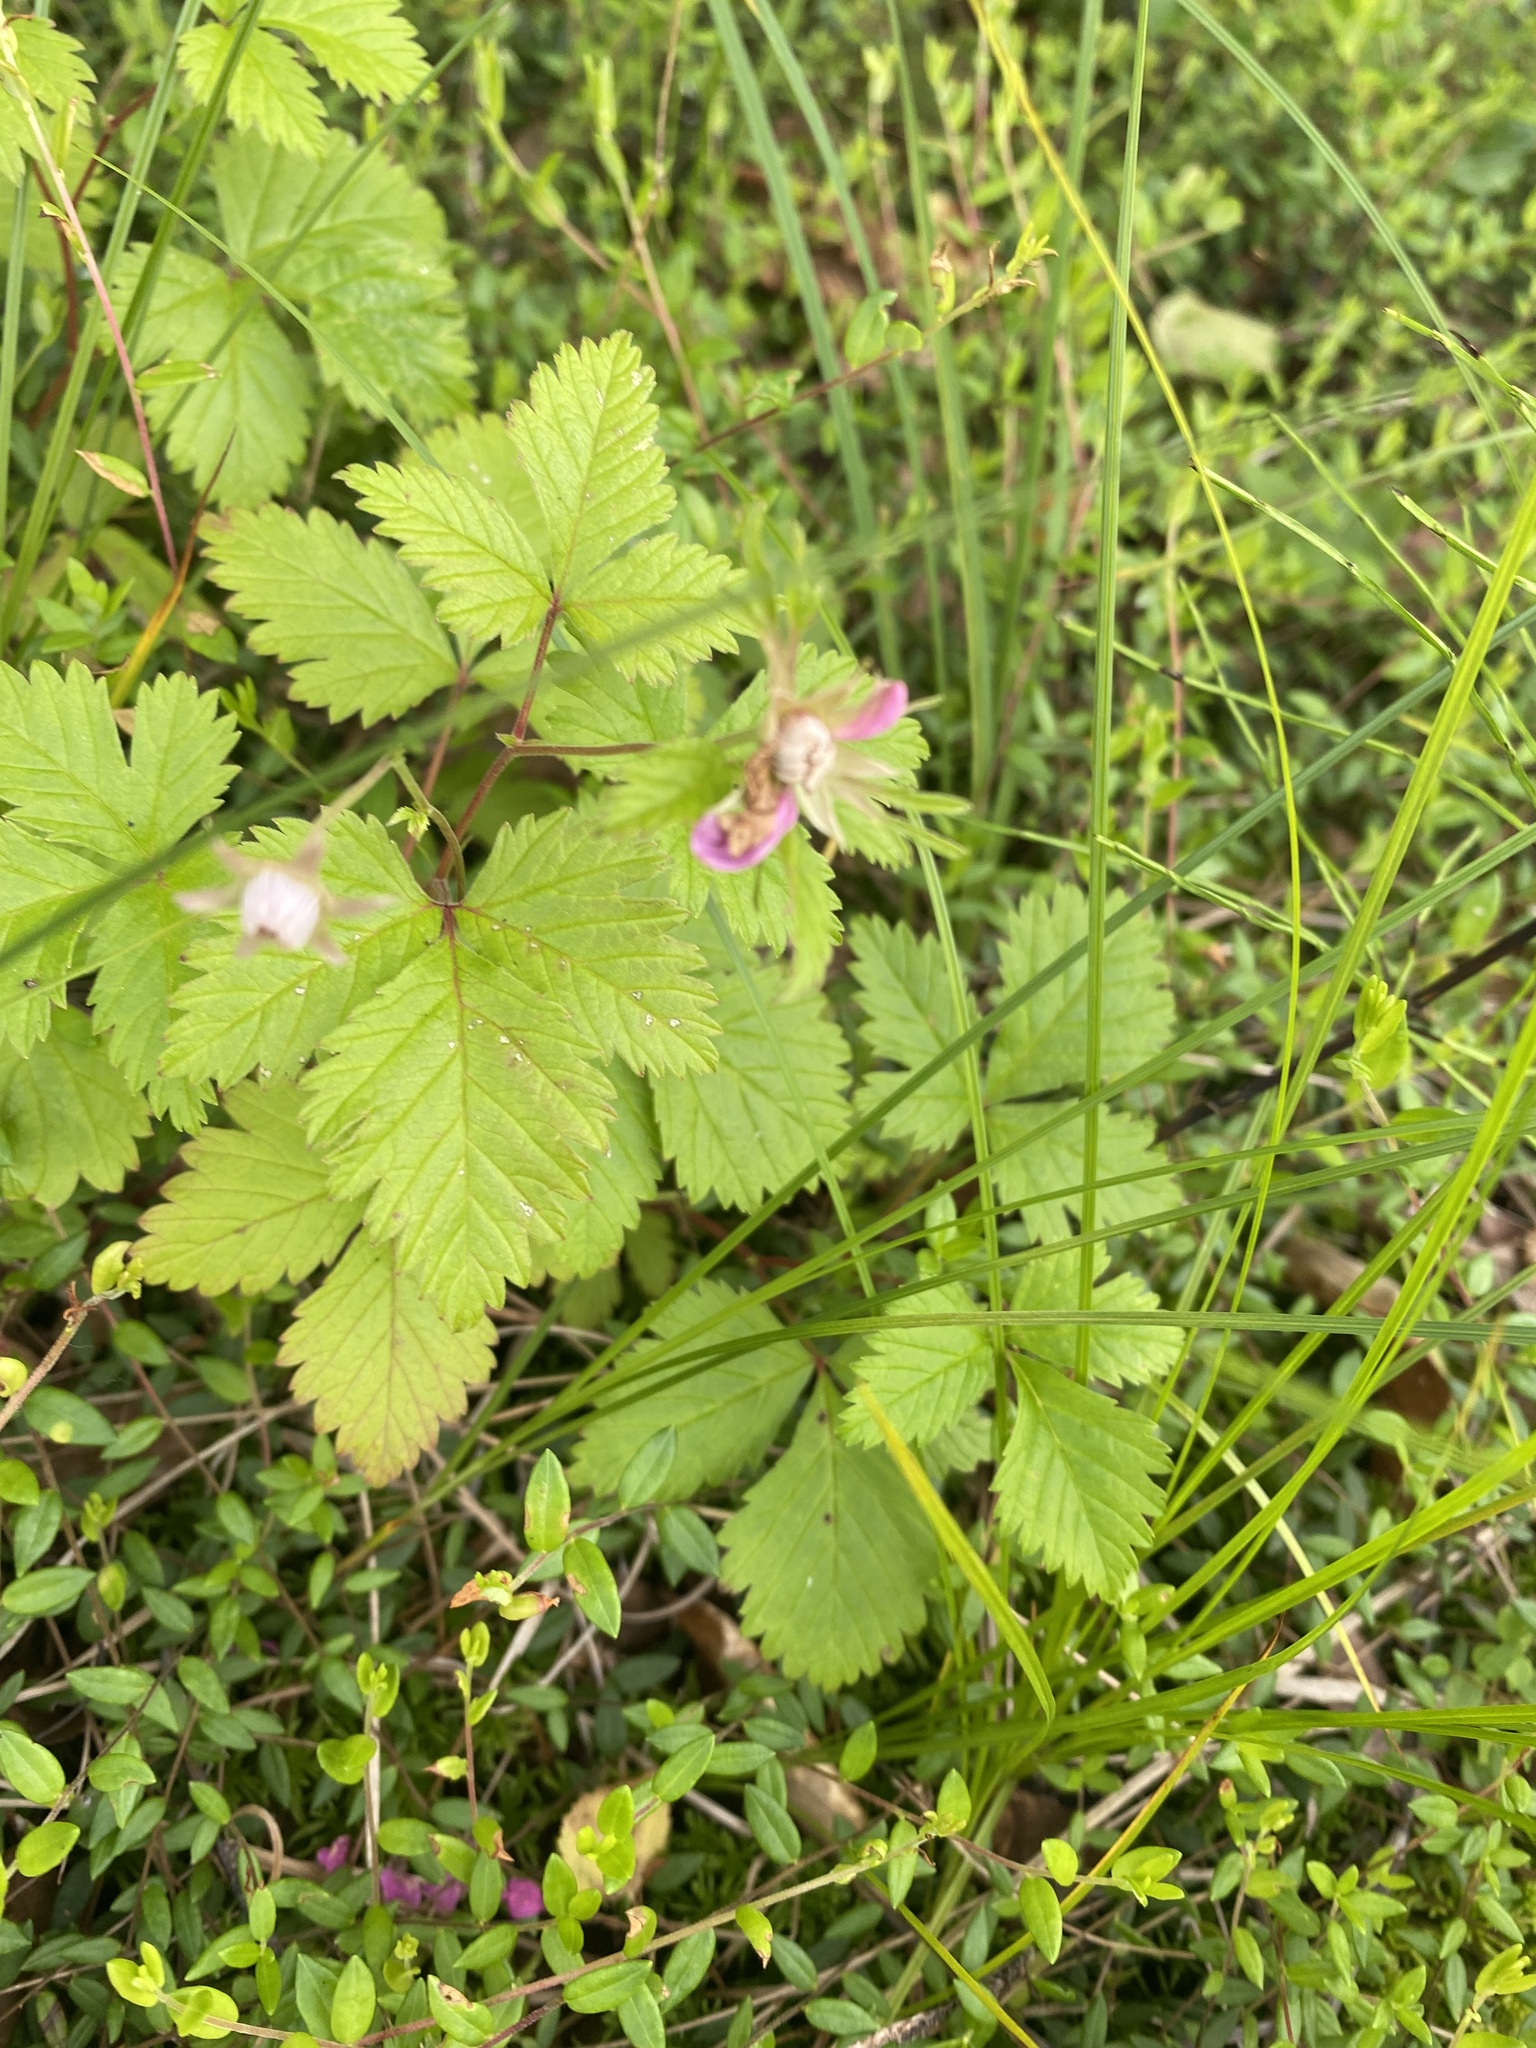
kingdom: Plantae
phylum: Tracheophyta
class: Magnoliopsida
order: Rosales
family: Rosaceae
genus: Rubus
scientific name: Rubus arcticus
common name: Arctic bramble
